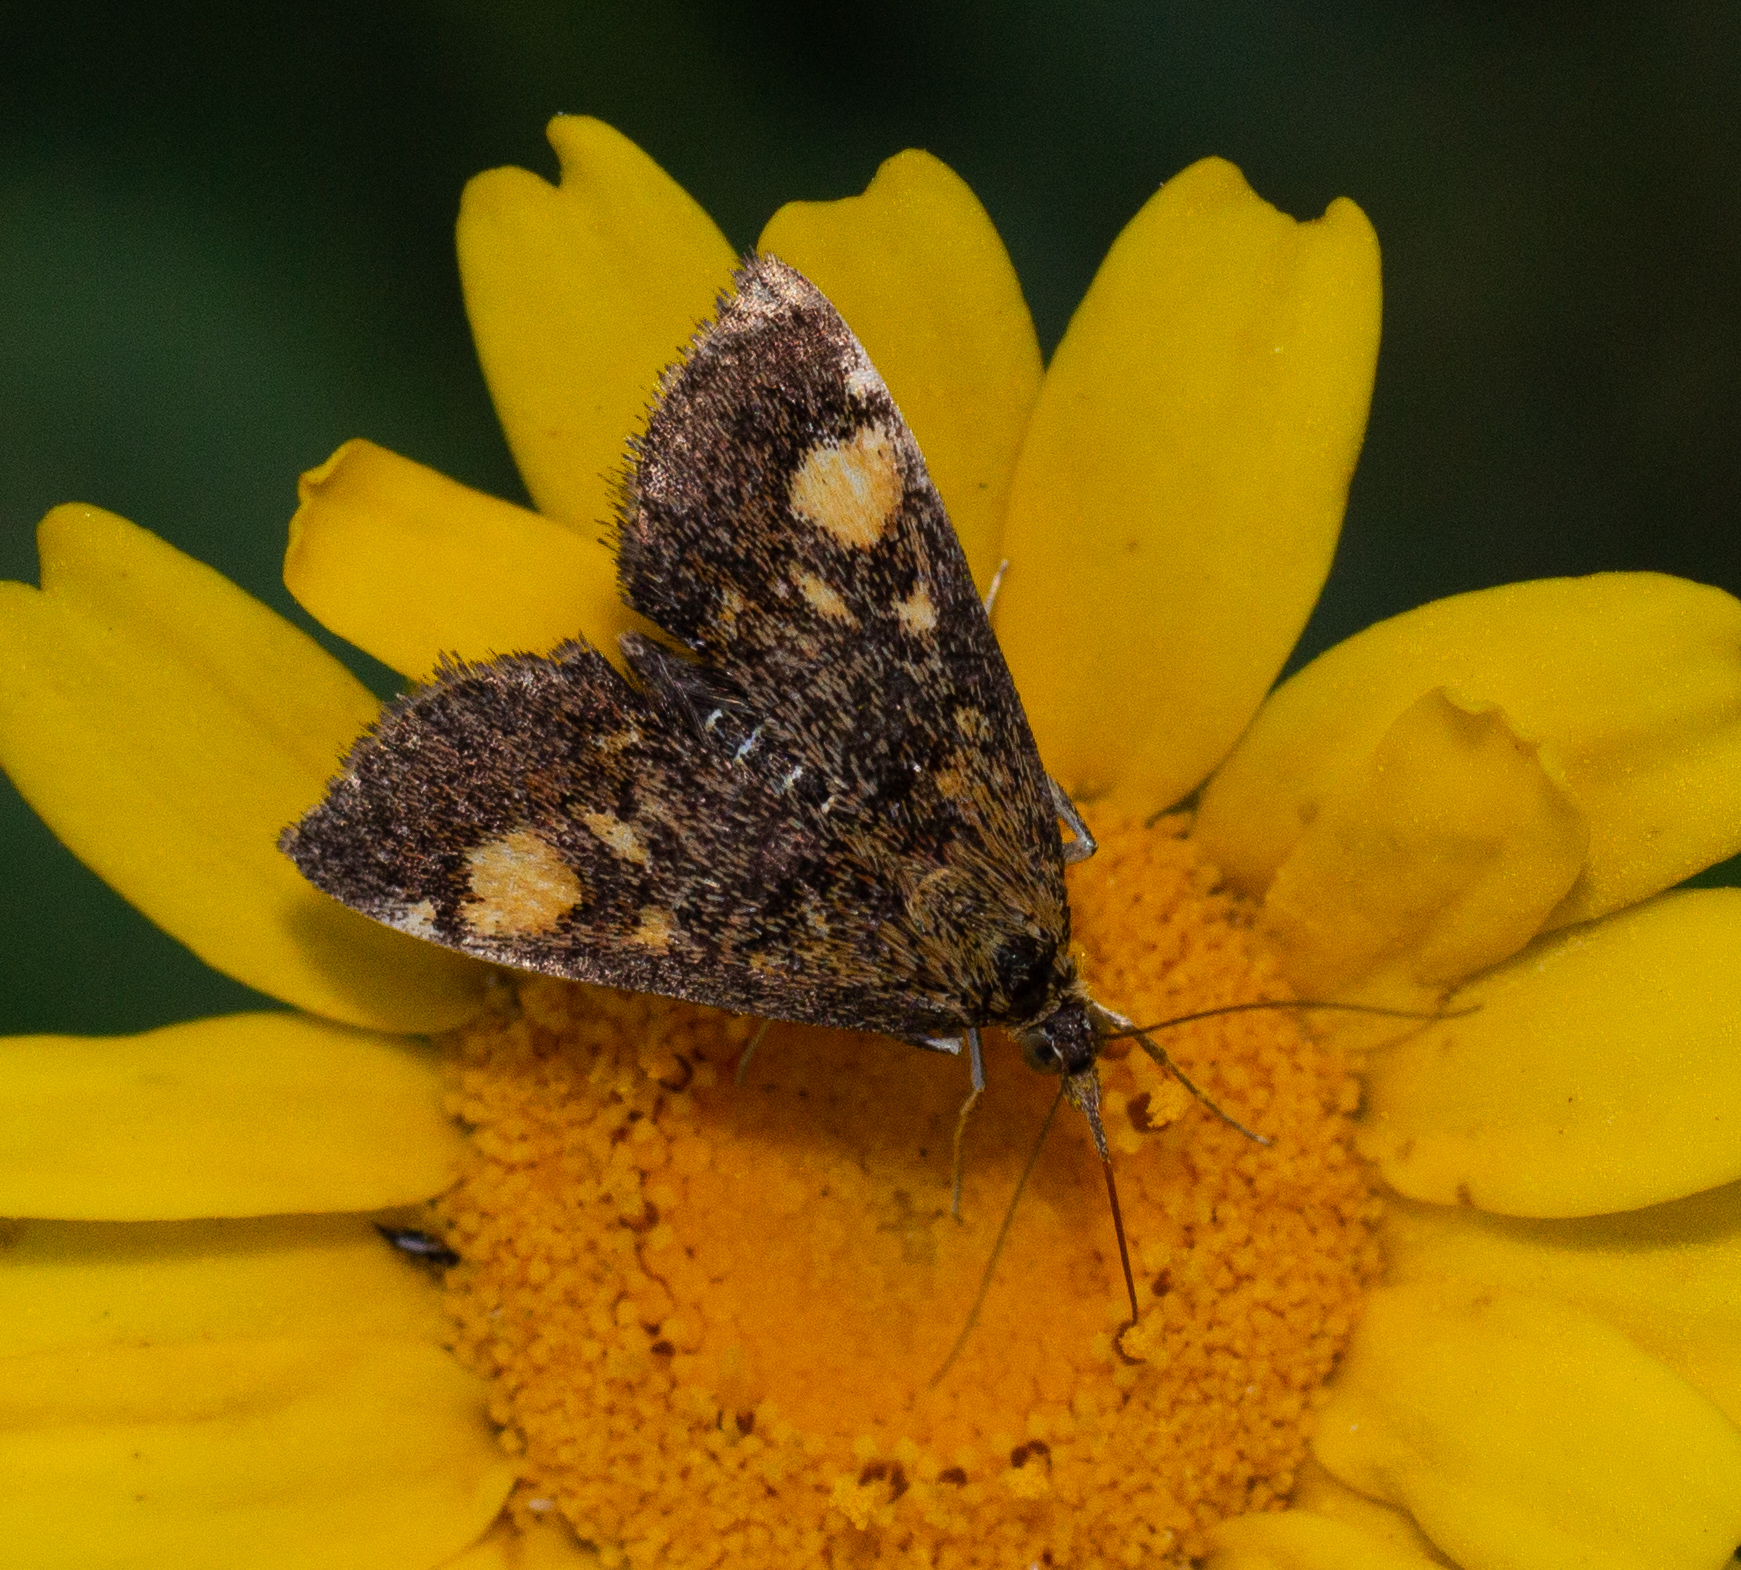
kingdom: Animalia
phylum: Arthropoda
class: Insecta
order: Lepidoptera
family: Crambidae
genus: Pyrausta
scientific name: Pyrausta aurata
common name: Small purple & gold
